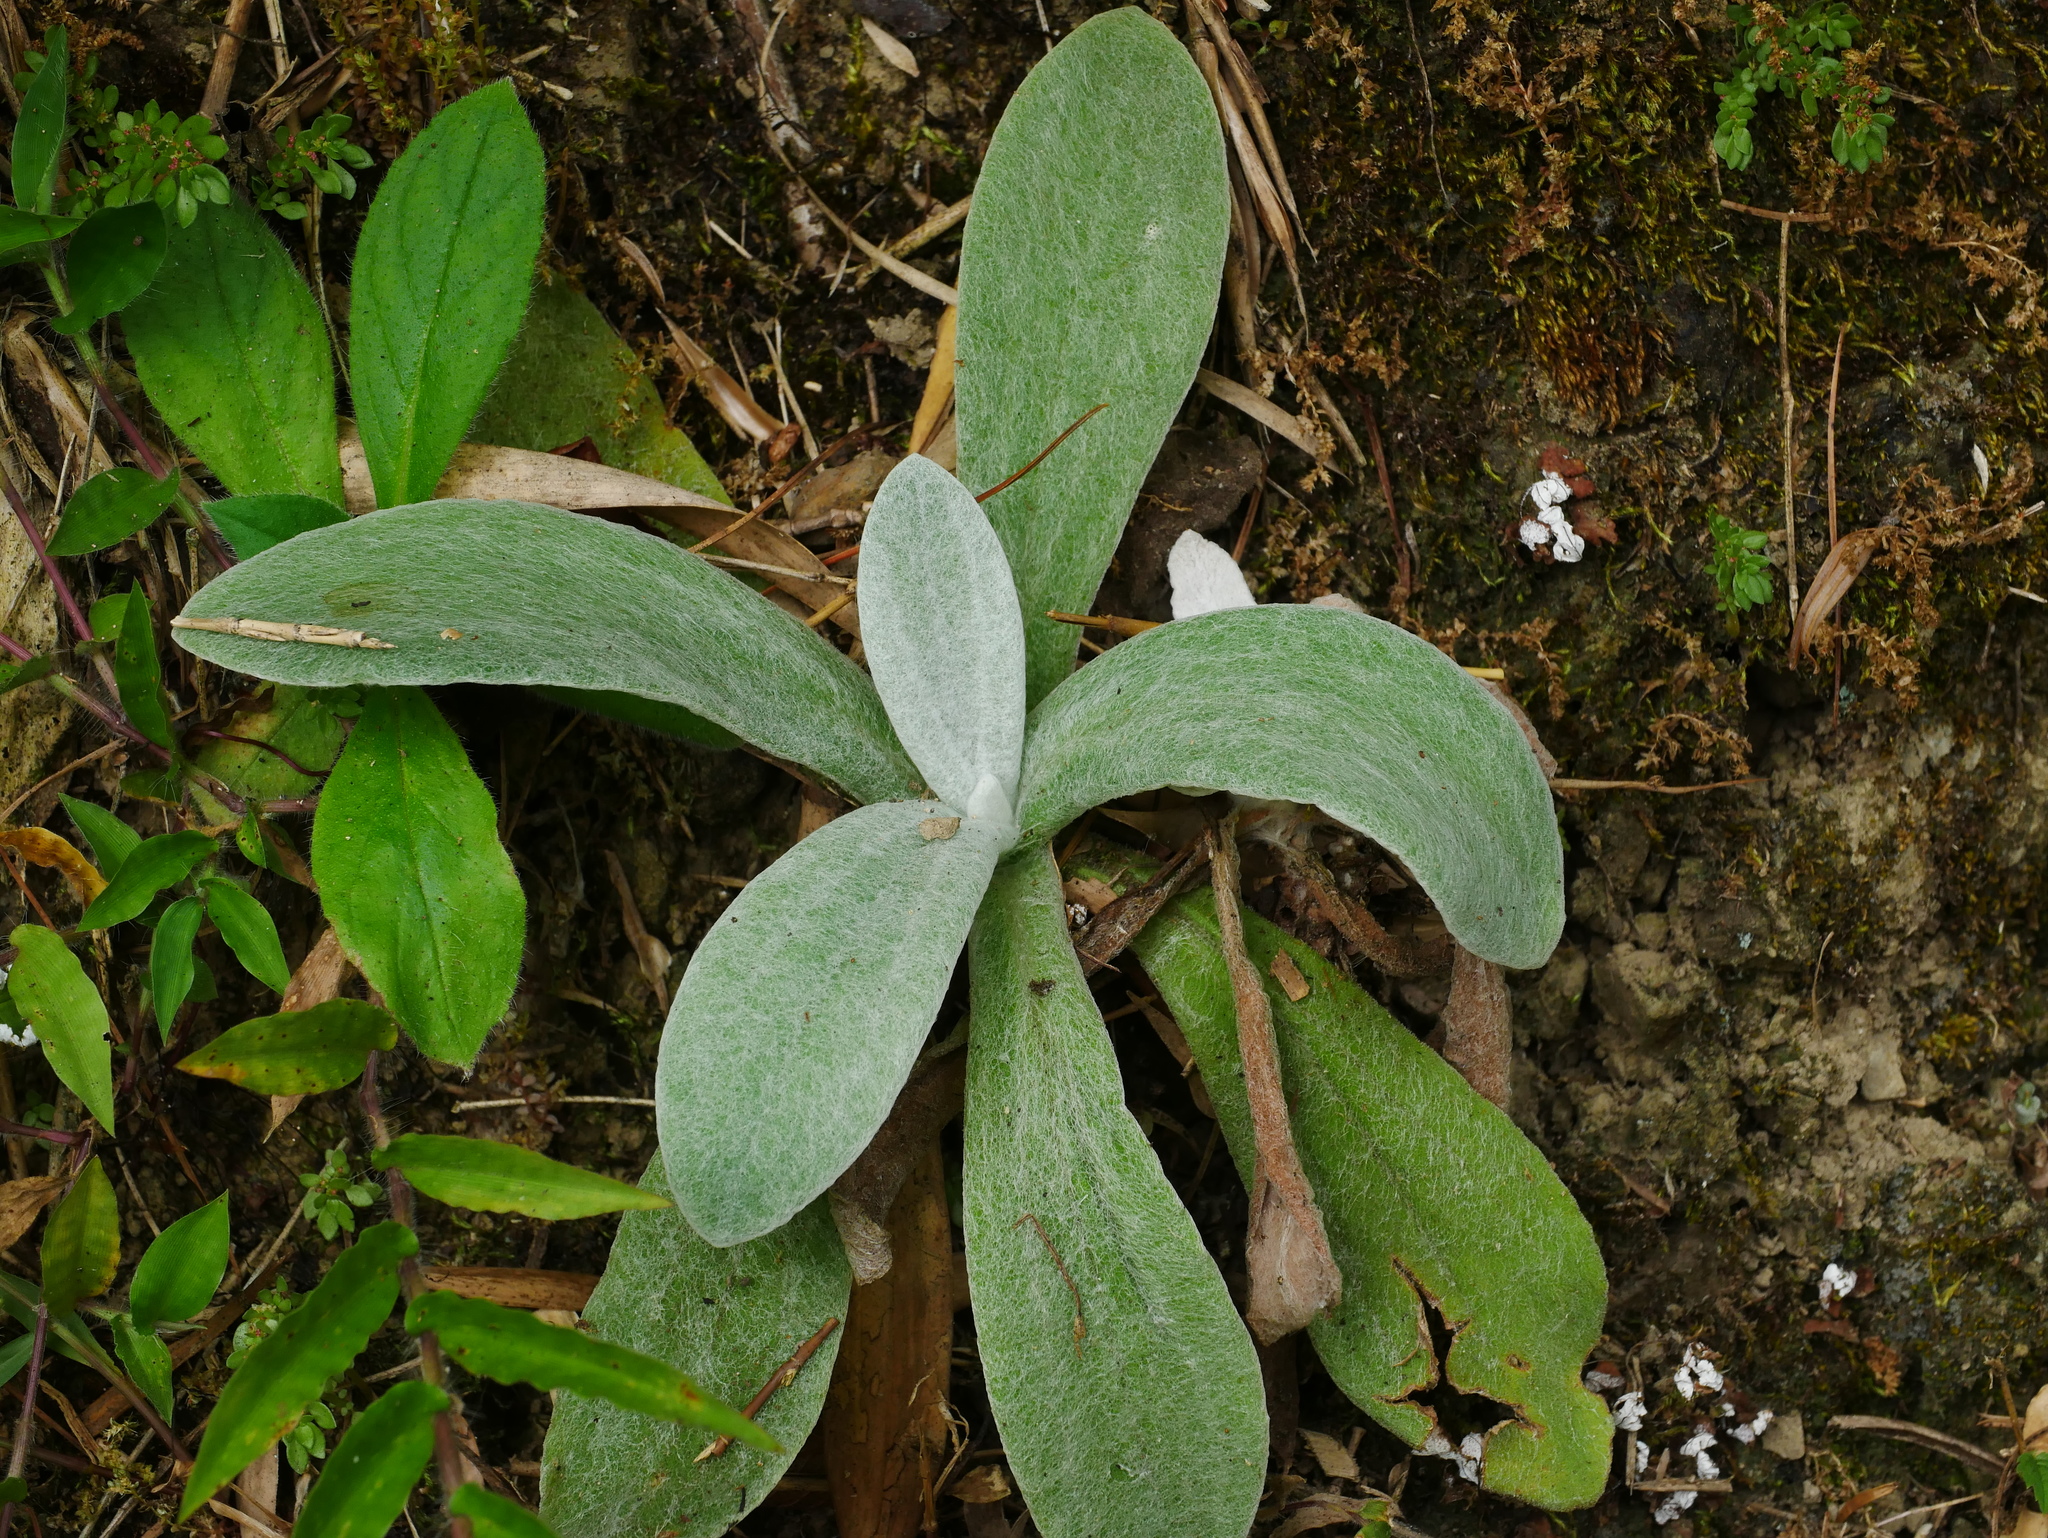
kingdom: Plantae
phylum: Tracheophyta
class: Magnoliopsida
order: Asterales
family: Asteraceae
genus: Pseudognaphalium
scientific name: Pseudognaphalium adnatum
